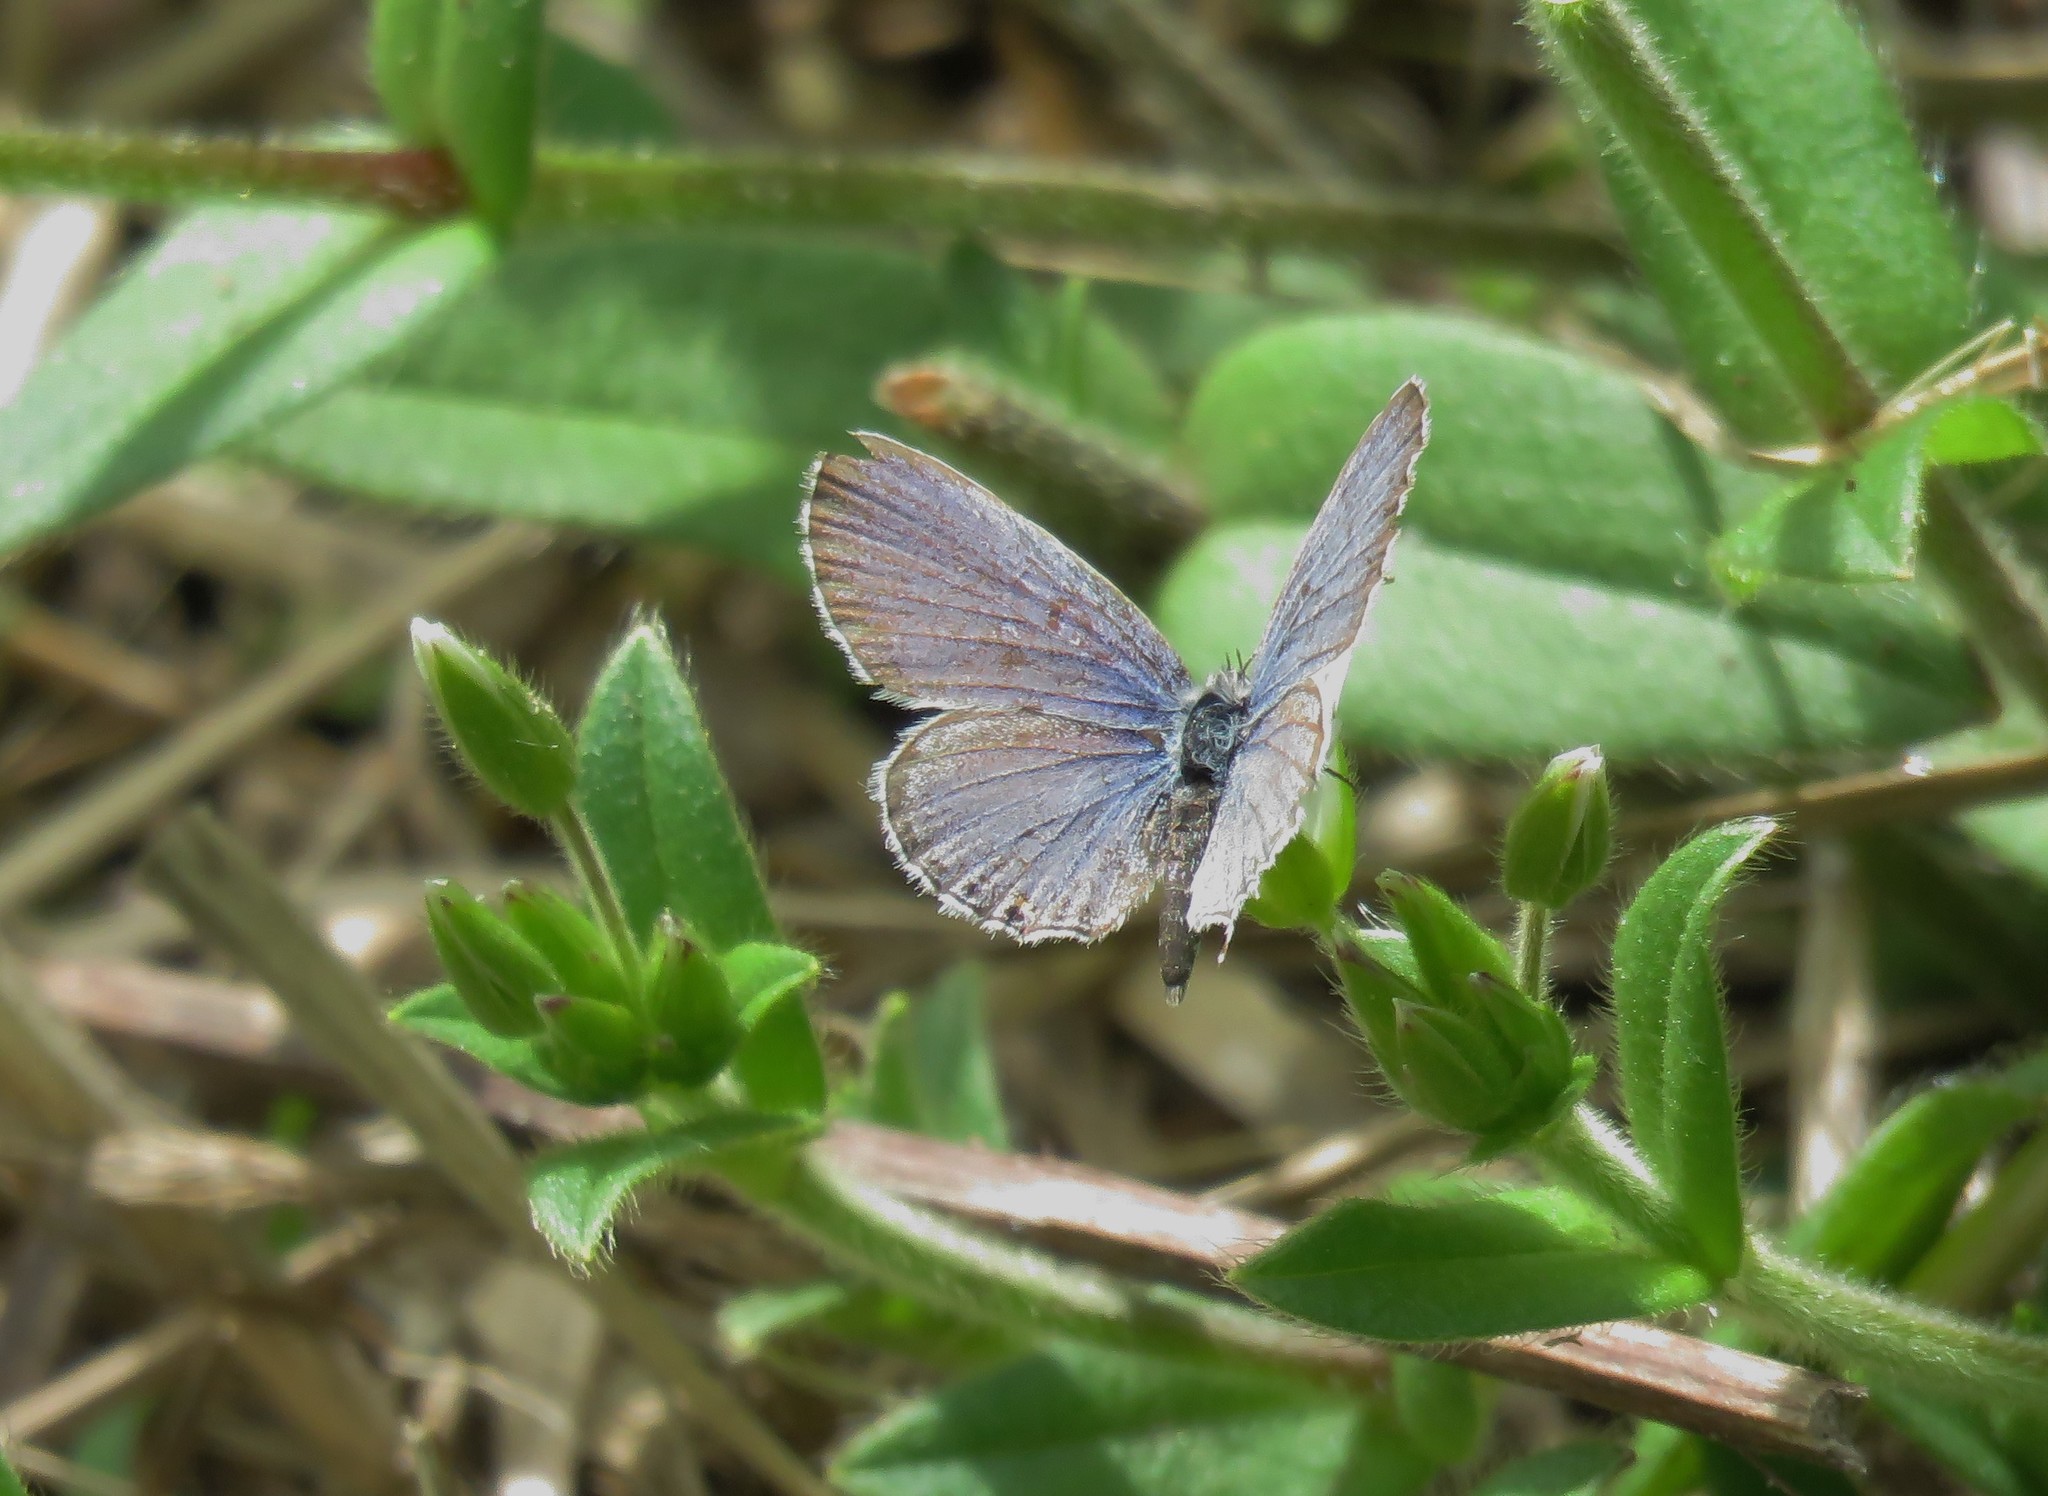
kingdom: Animalia
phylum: Arthropoda
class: Insecta
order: Lepidoptera
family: Lycaenidae
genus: Elkalyce
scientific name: Elkalyce comyntas
